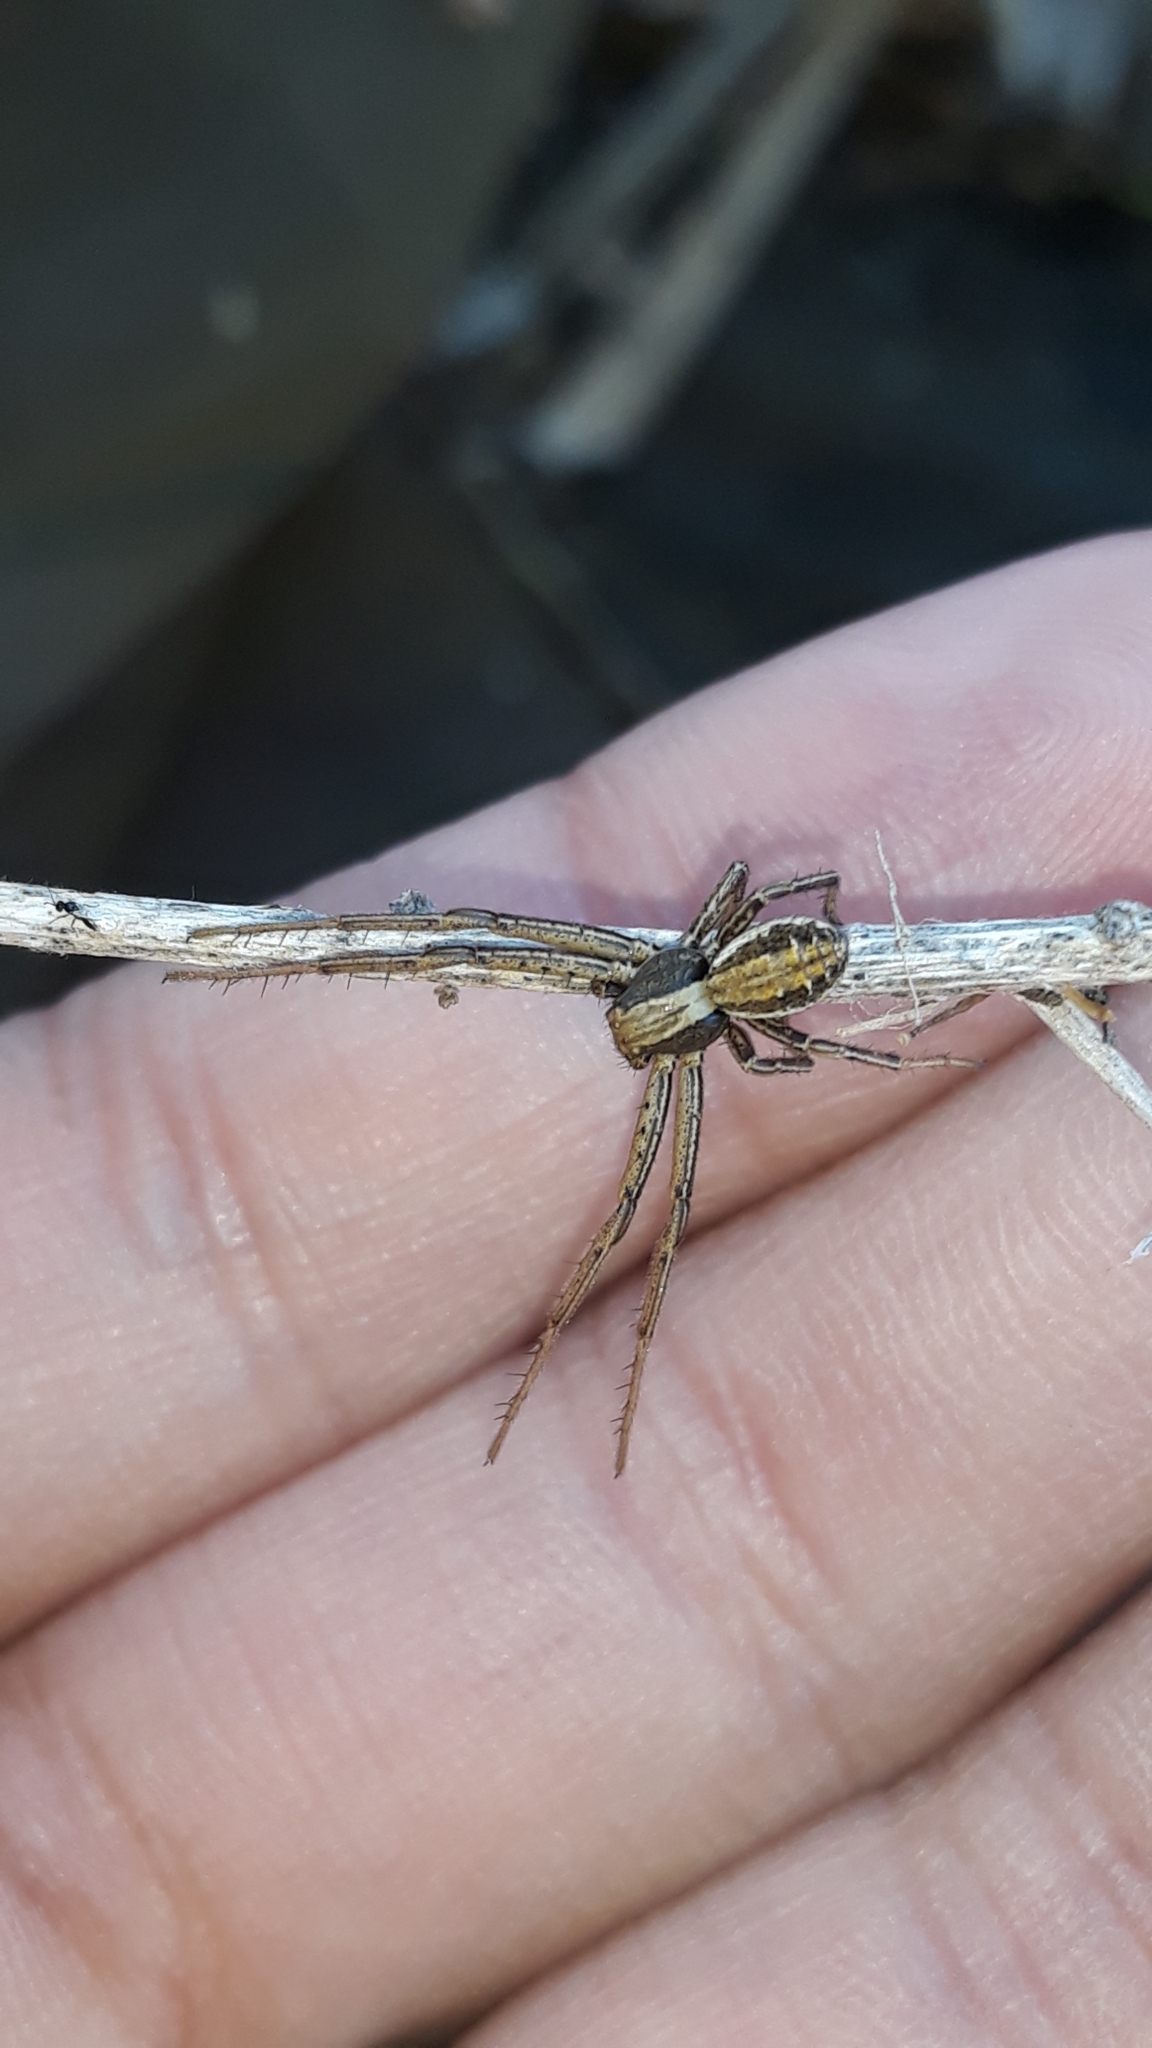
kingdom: Animalia
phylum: Arthropoda
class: Arachnida
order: Araneae
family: Thomisidae
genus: Spiracme
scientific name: Spiracme striatipes
